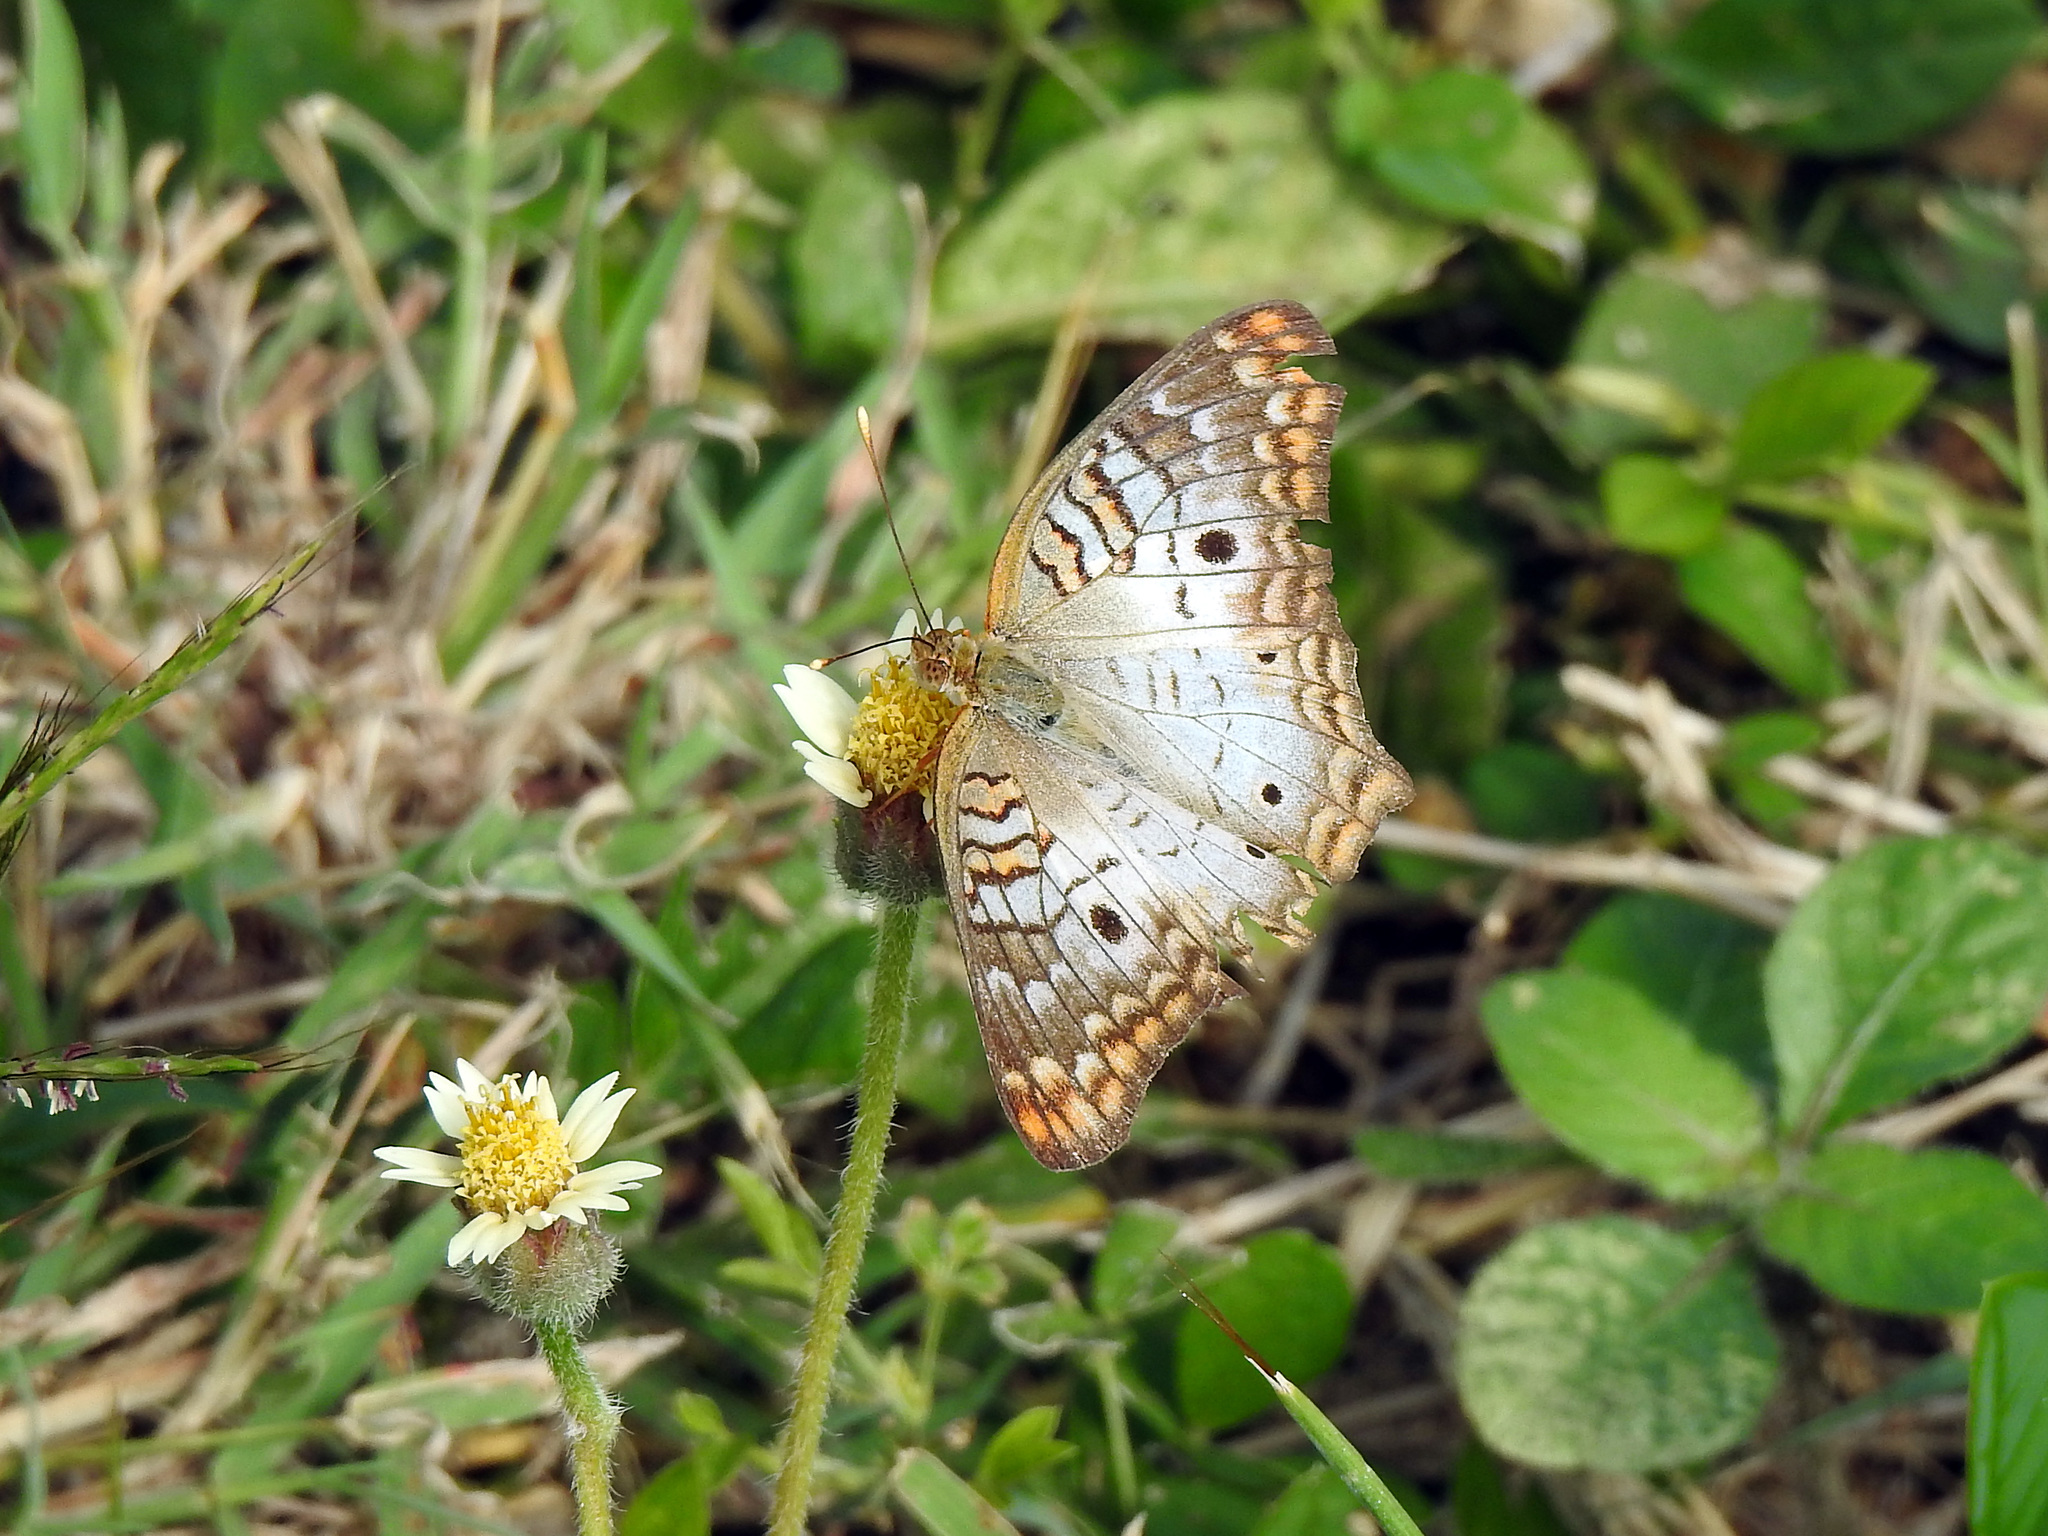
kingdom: Animalia
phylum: Arthropoda
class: Insecta
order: Lepidoptera
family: Nymphalidae
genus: Anartia
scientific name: Anartia jatrophae
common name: White peacock
